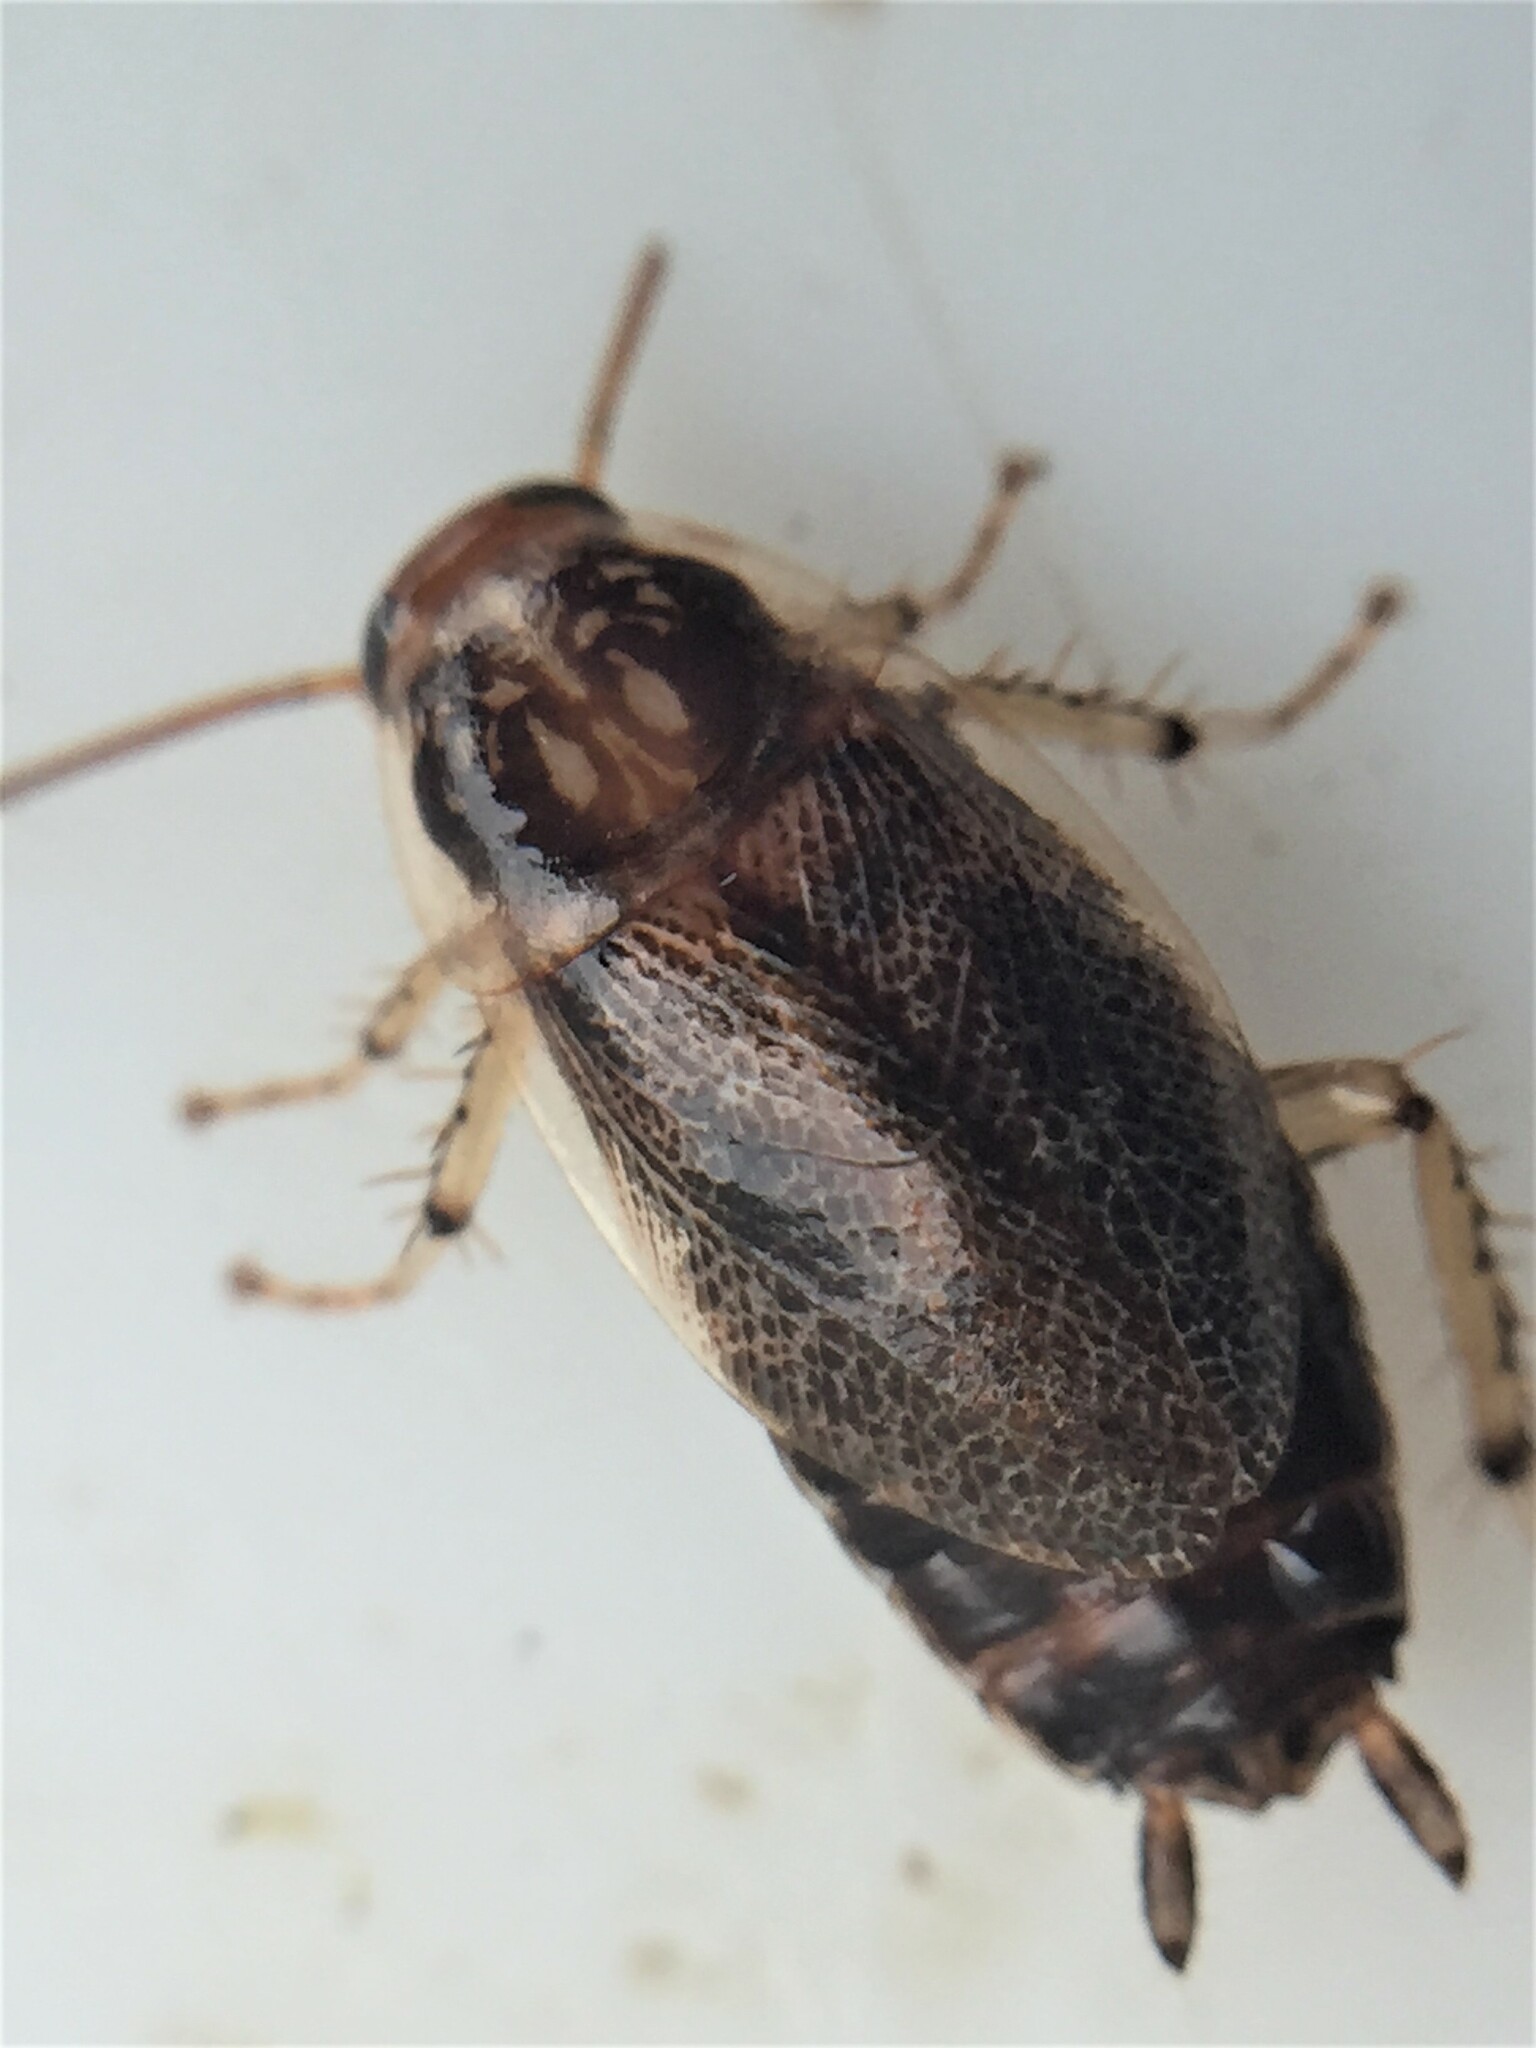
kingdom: Animalia
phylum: Arthropoda
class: Insecta
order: Blattodea
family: Ectobiidae
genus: Ornatiblatta
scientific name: Ornatiblatta maori
